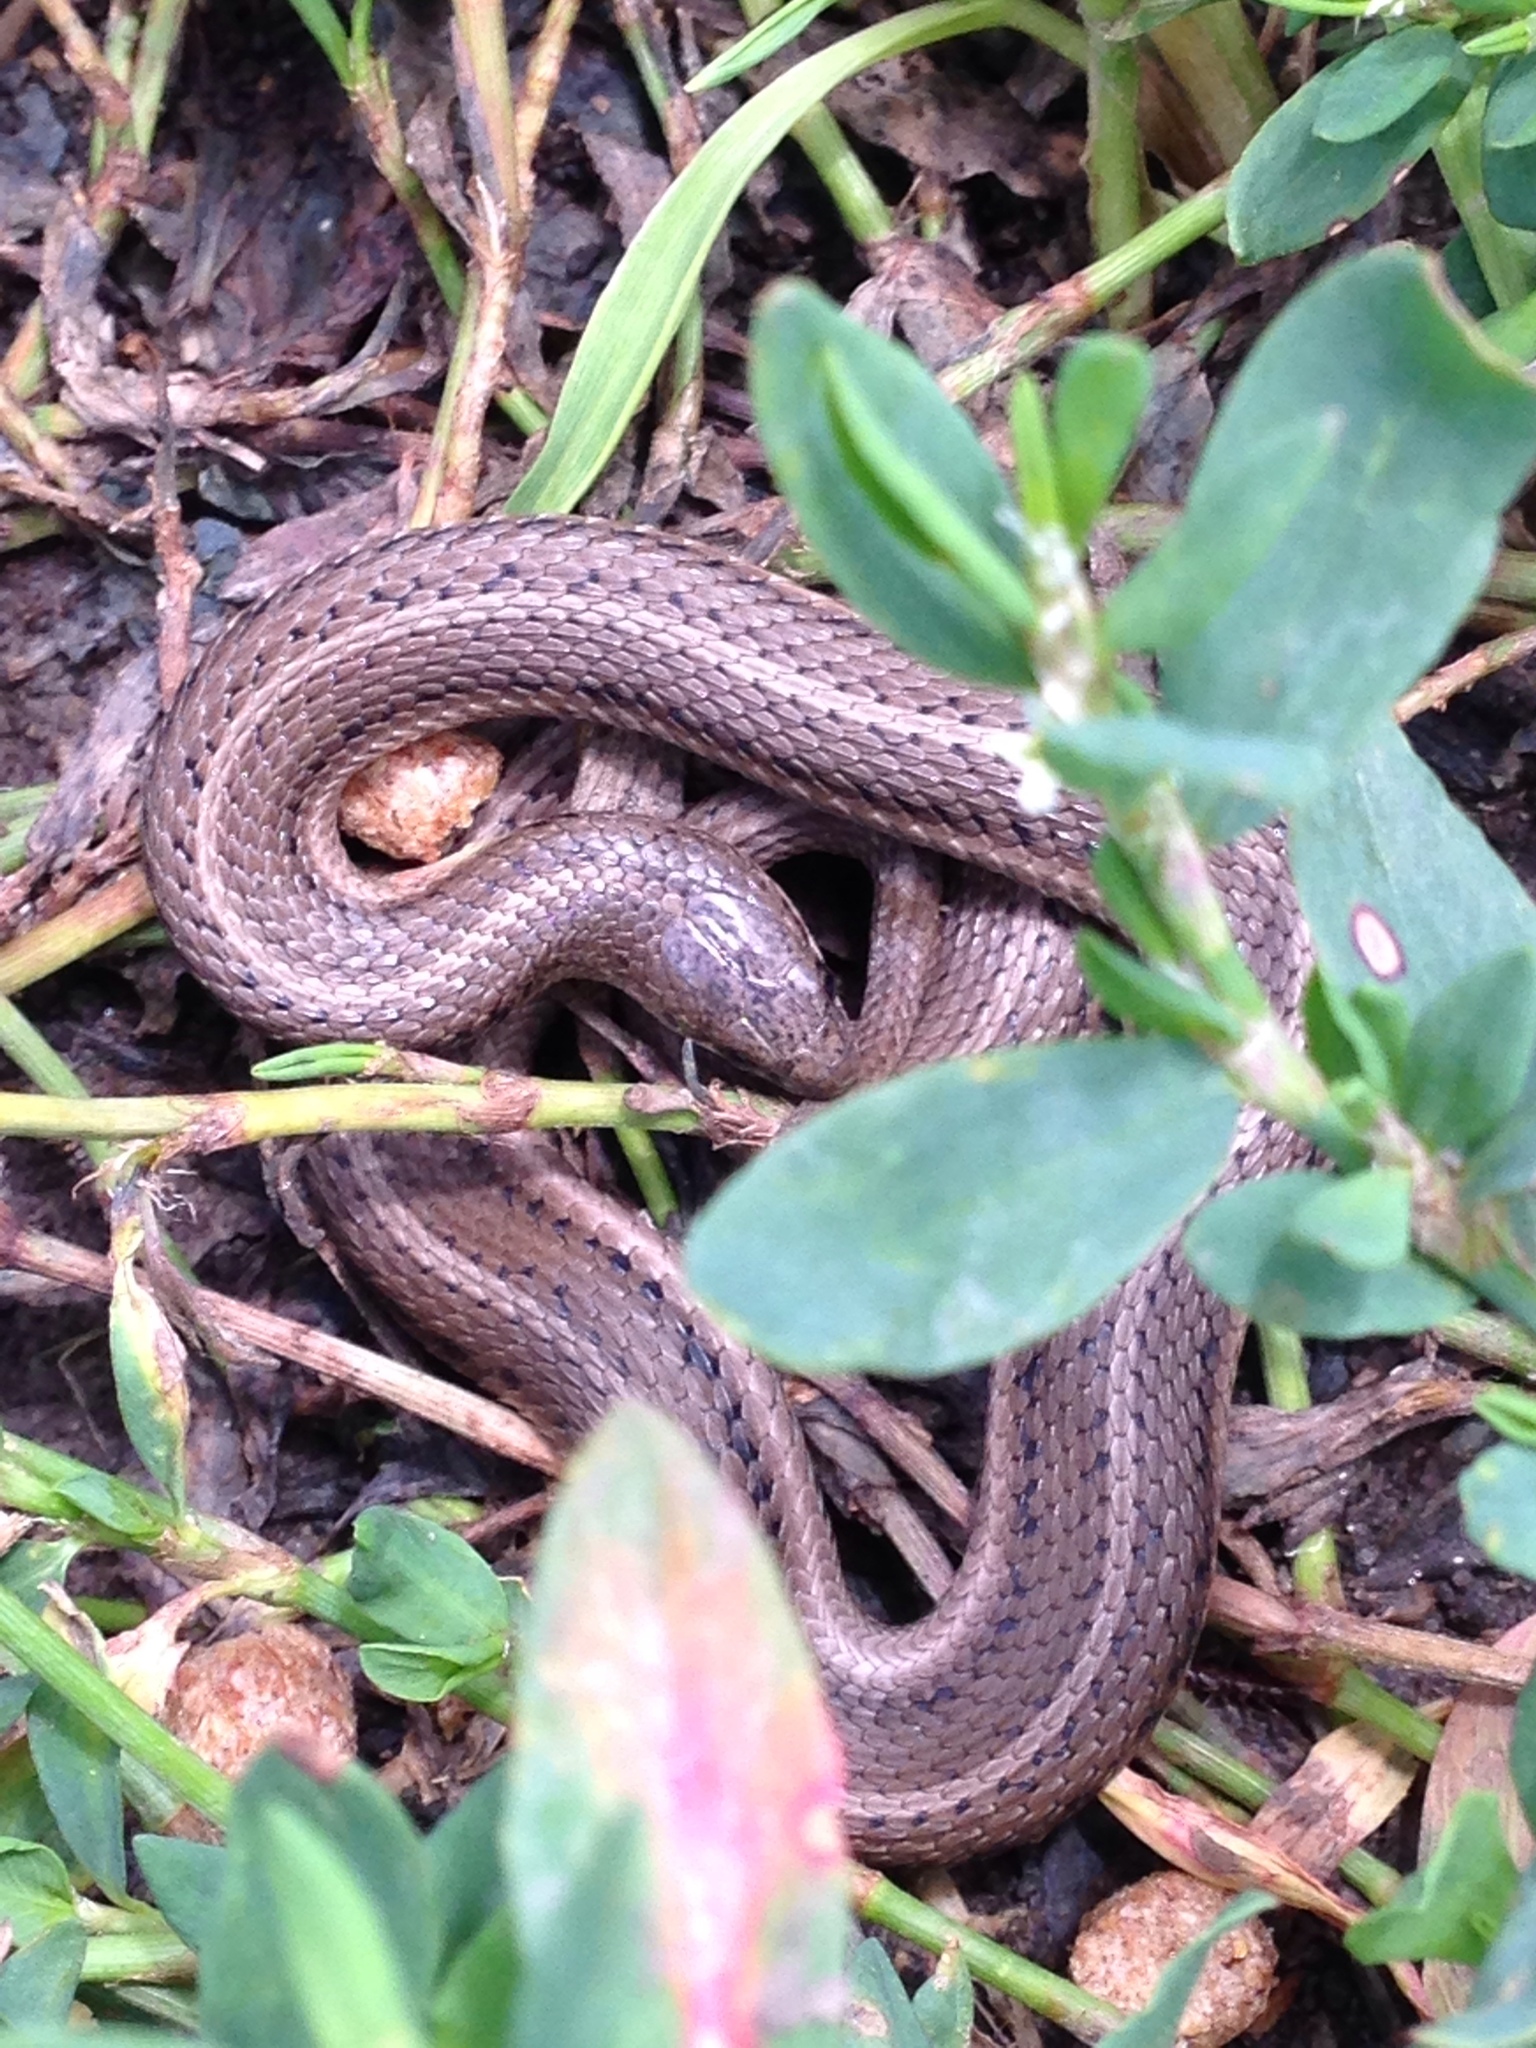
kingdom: Animalia
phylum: Chordata
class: Squamata
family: Colubridae
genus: Tropidoclonion
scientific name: Tropidoclonion lineatum
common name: Lined snake
